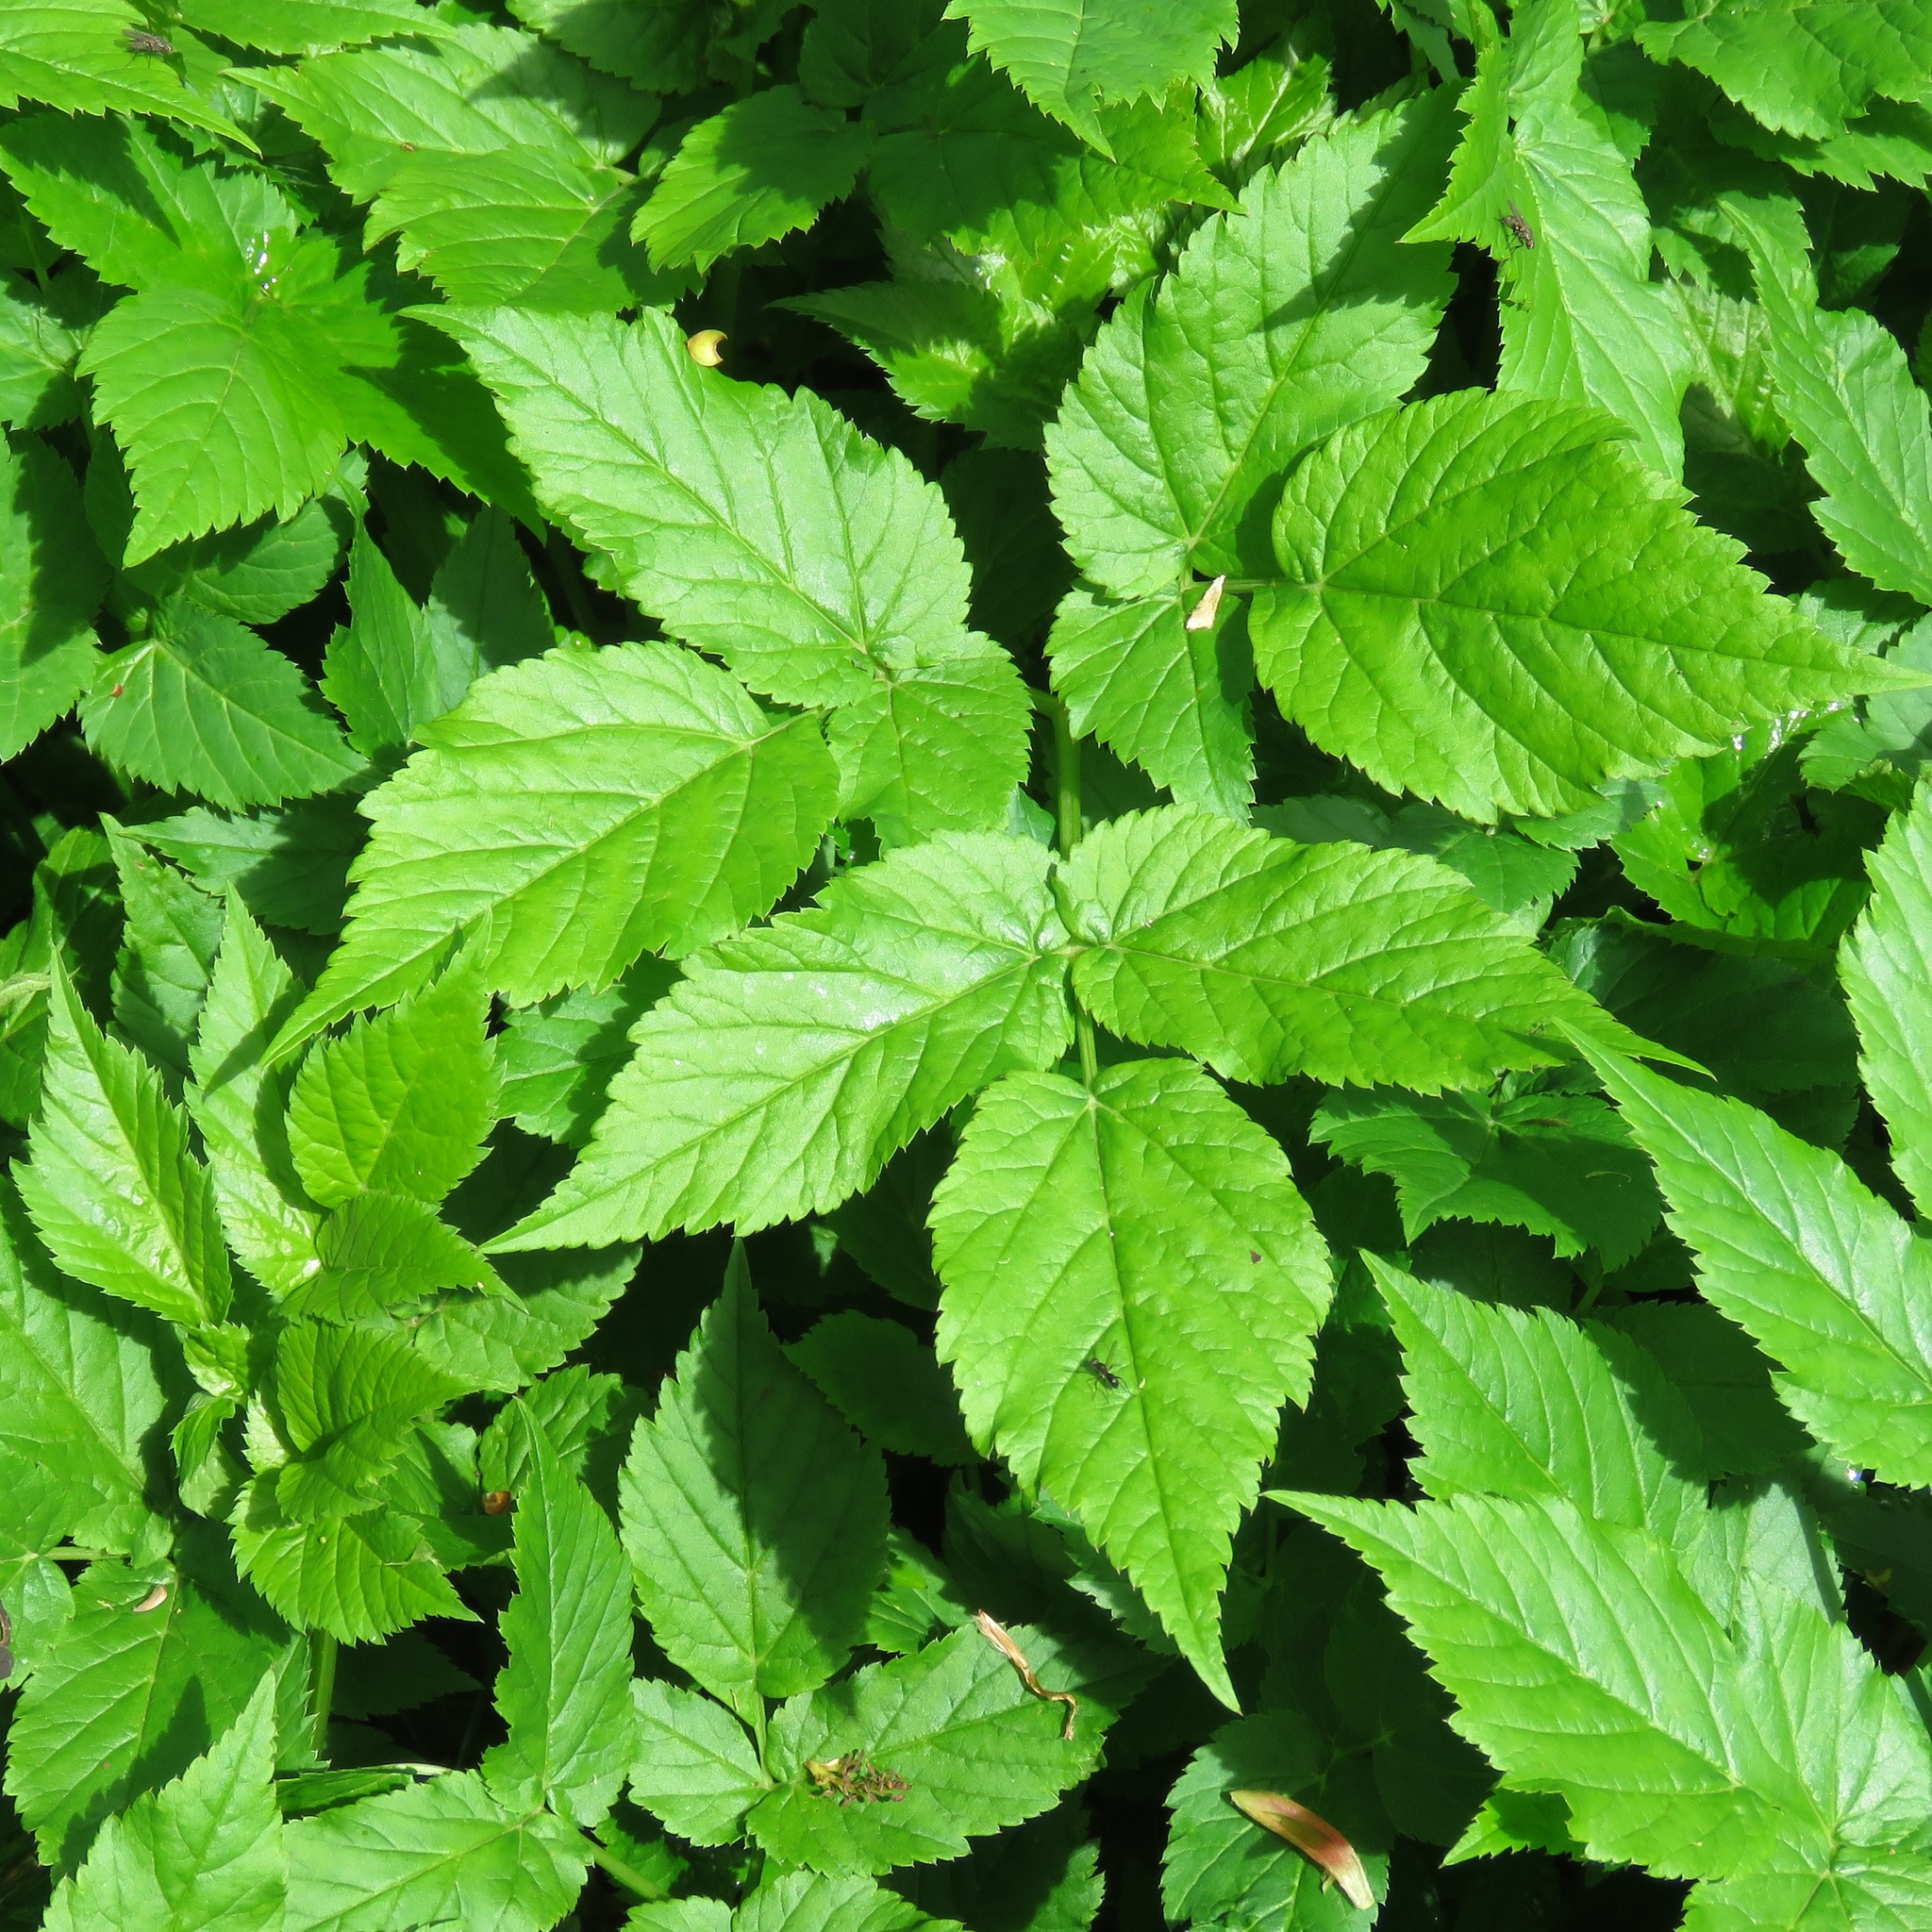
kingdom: Plantae
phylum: Tracheophyta
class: Magnoliopsida
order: Apiales
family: Apiaceae
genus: Aegopodium
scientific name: Aegopodium podagraria
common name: Ground-elder
